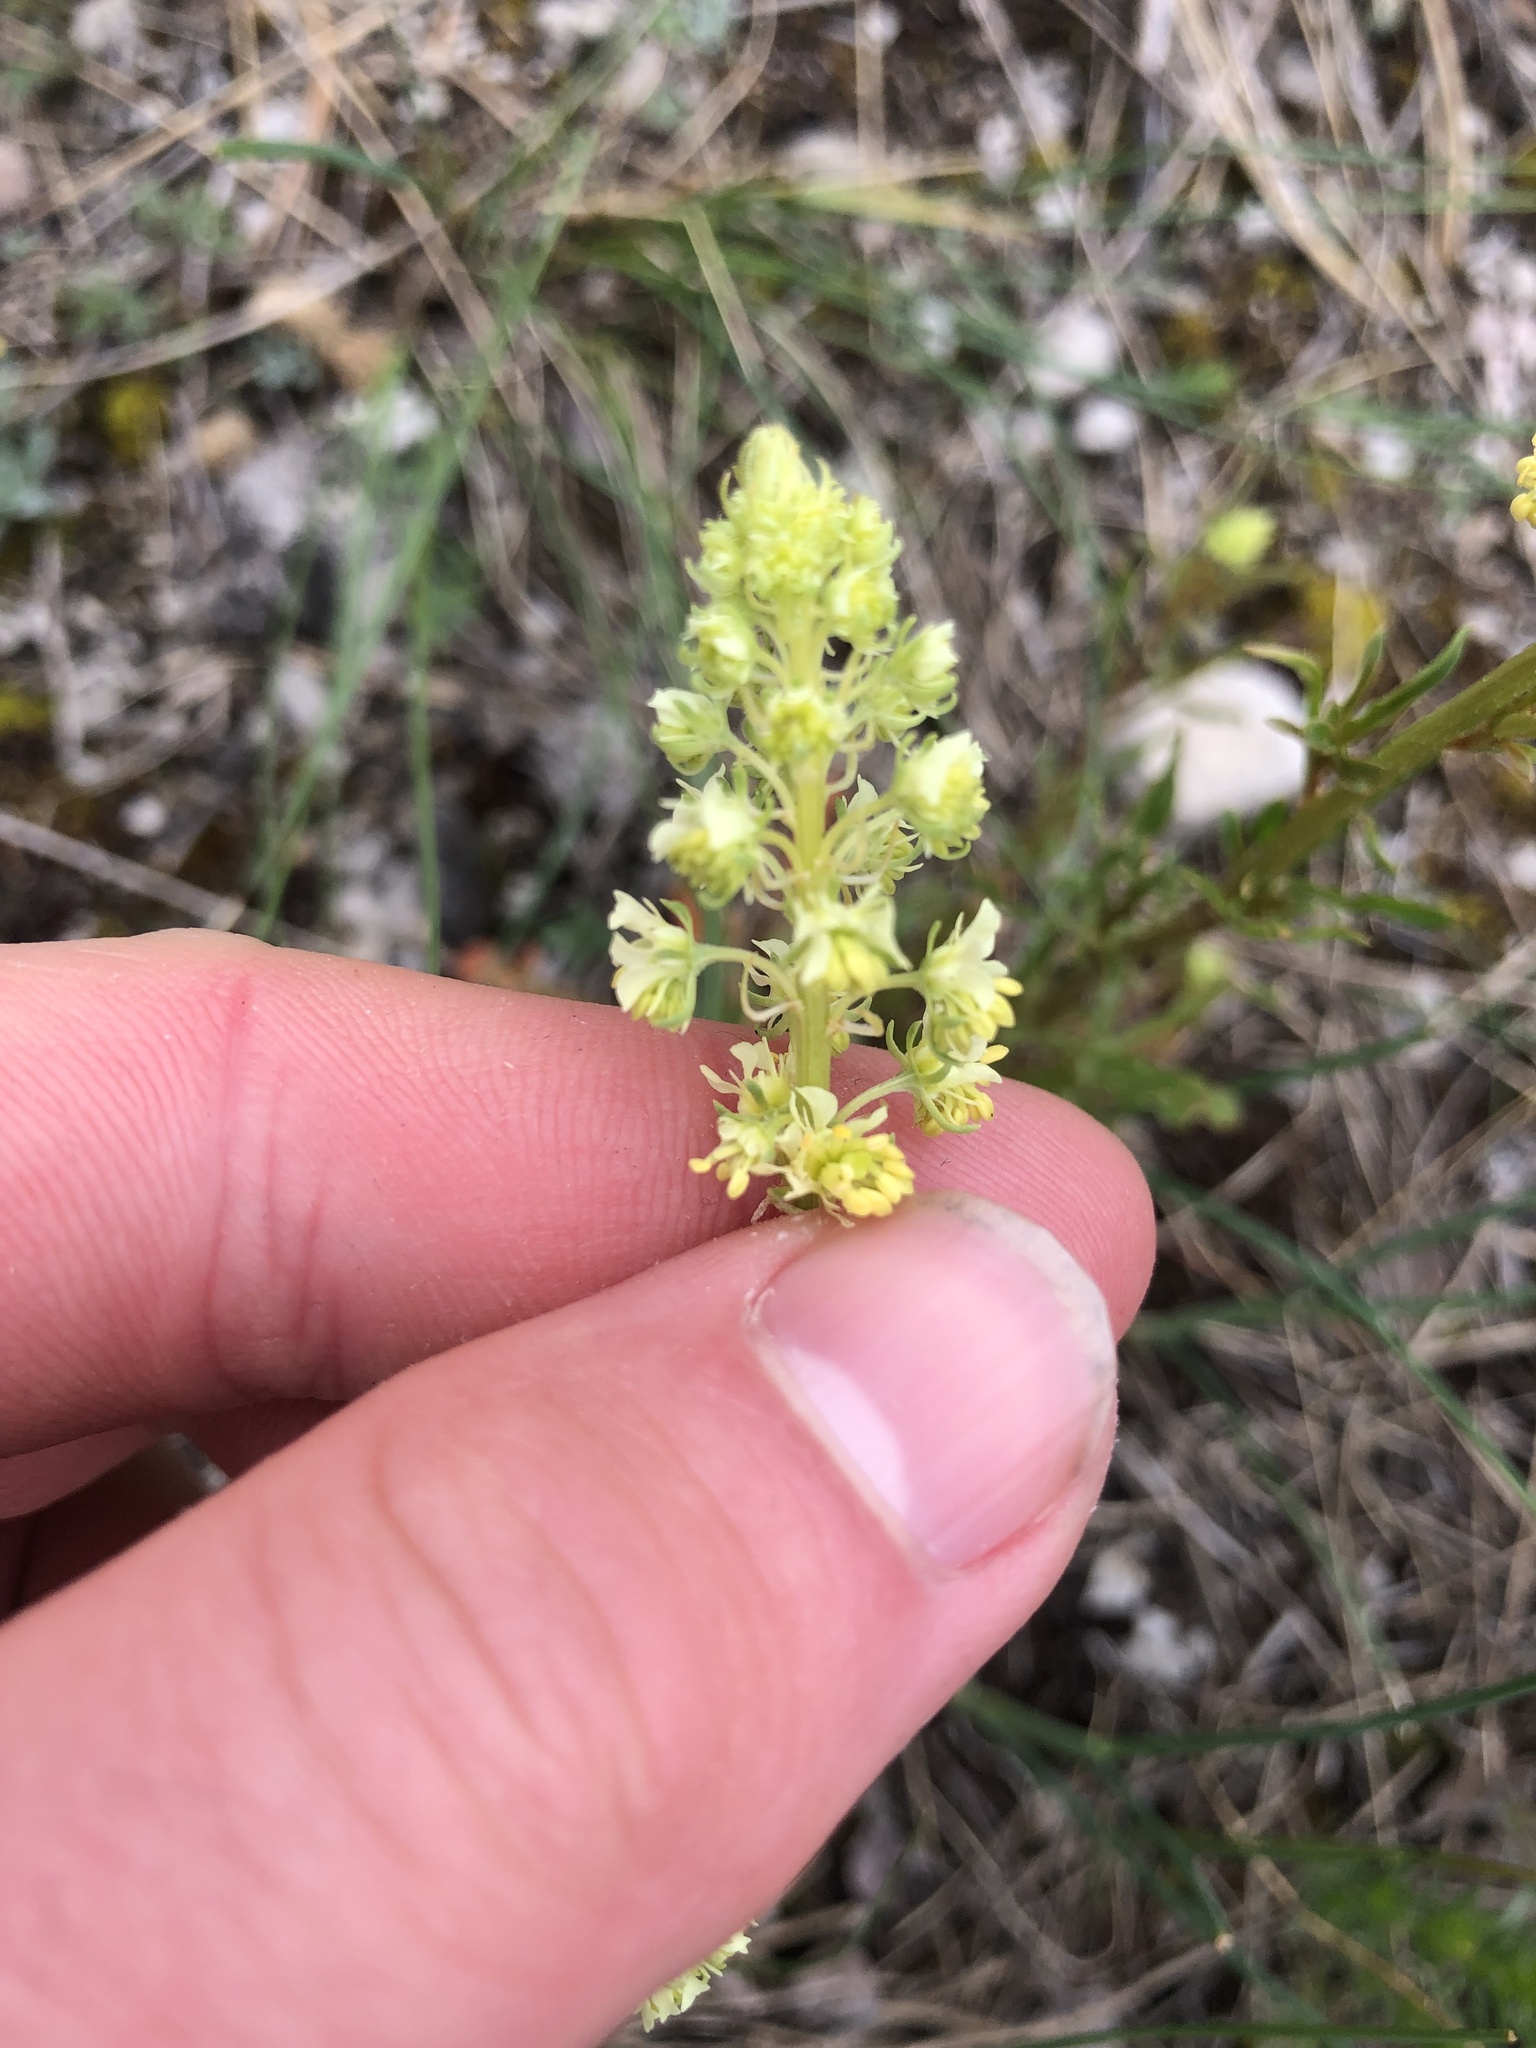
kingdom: Plantae
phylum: Tracheophyta
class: Magnoliopsida
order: Brassicales
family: Resedaceae
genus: Reseda
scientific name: Reseda lutea
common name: Wild mignonette
